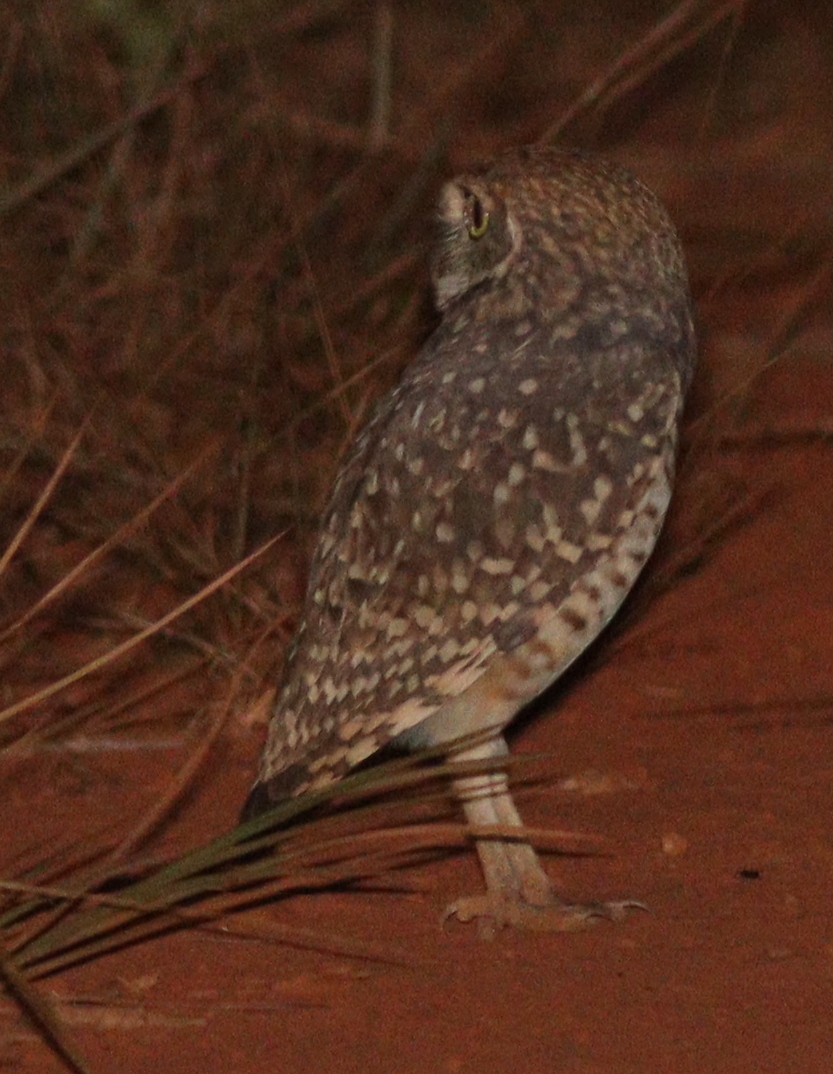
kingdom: Animalia
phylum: Chordata
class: Aves
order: Strigiformes
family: Strigidae
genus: Athene
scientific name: Athene cunicularia
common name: Burrowing owl
